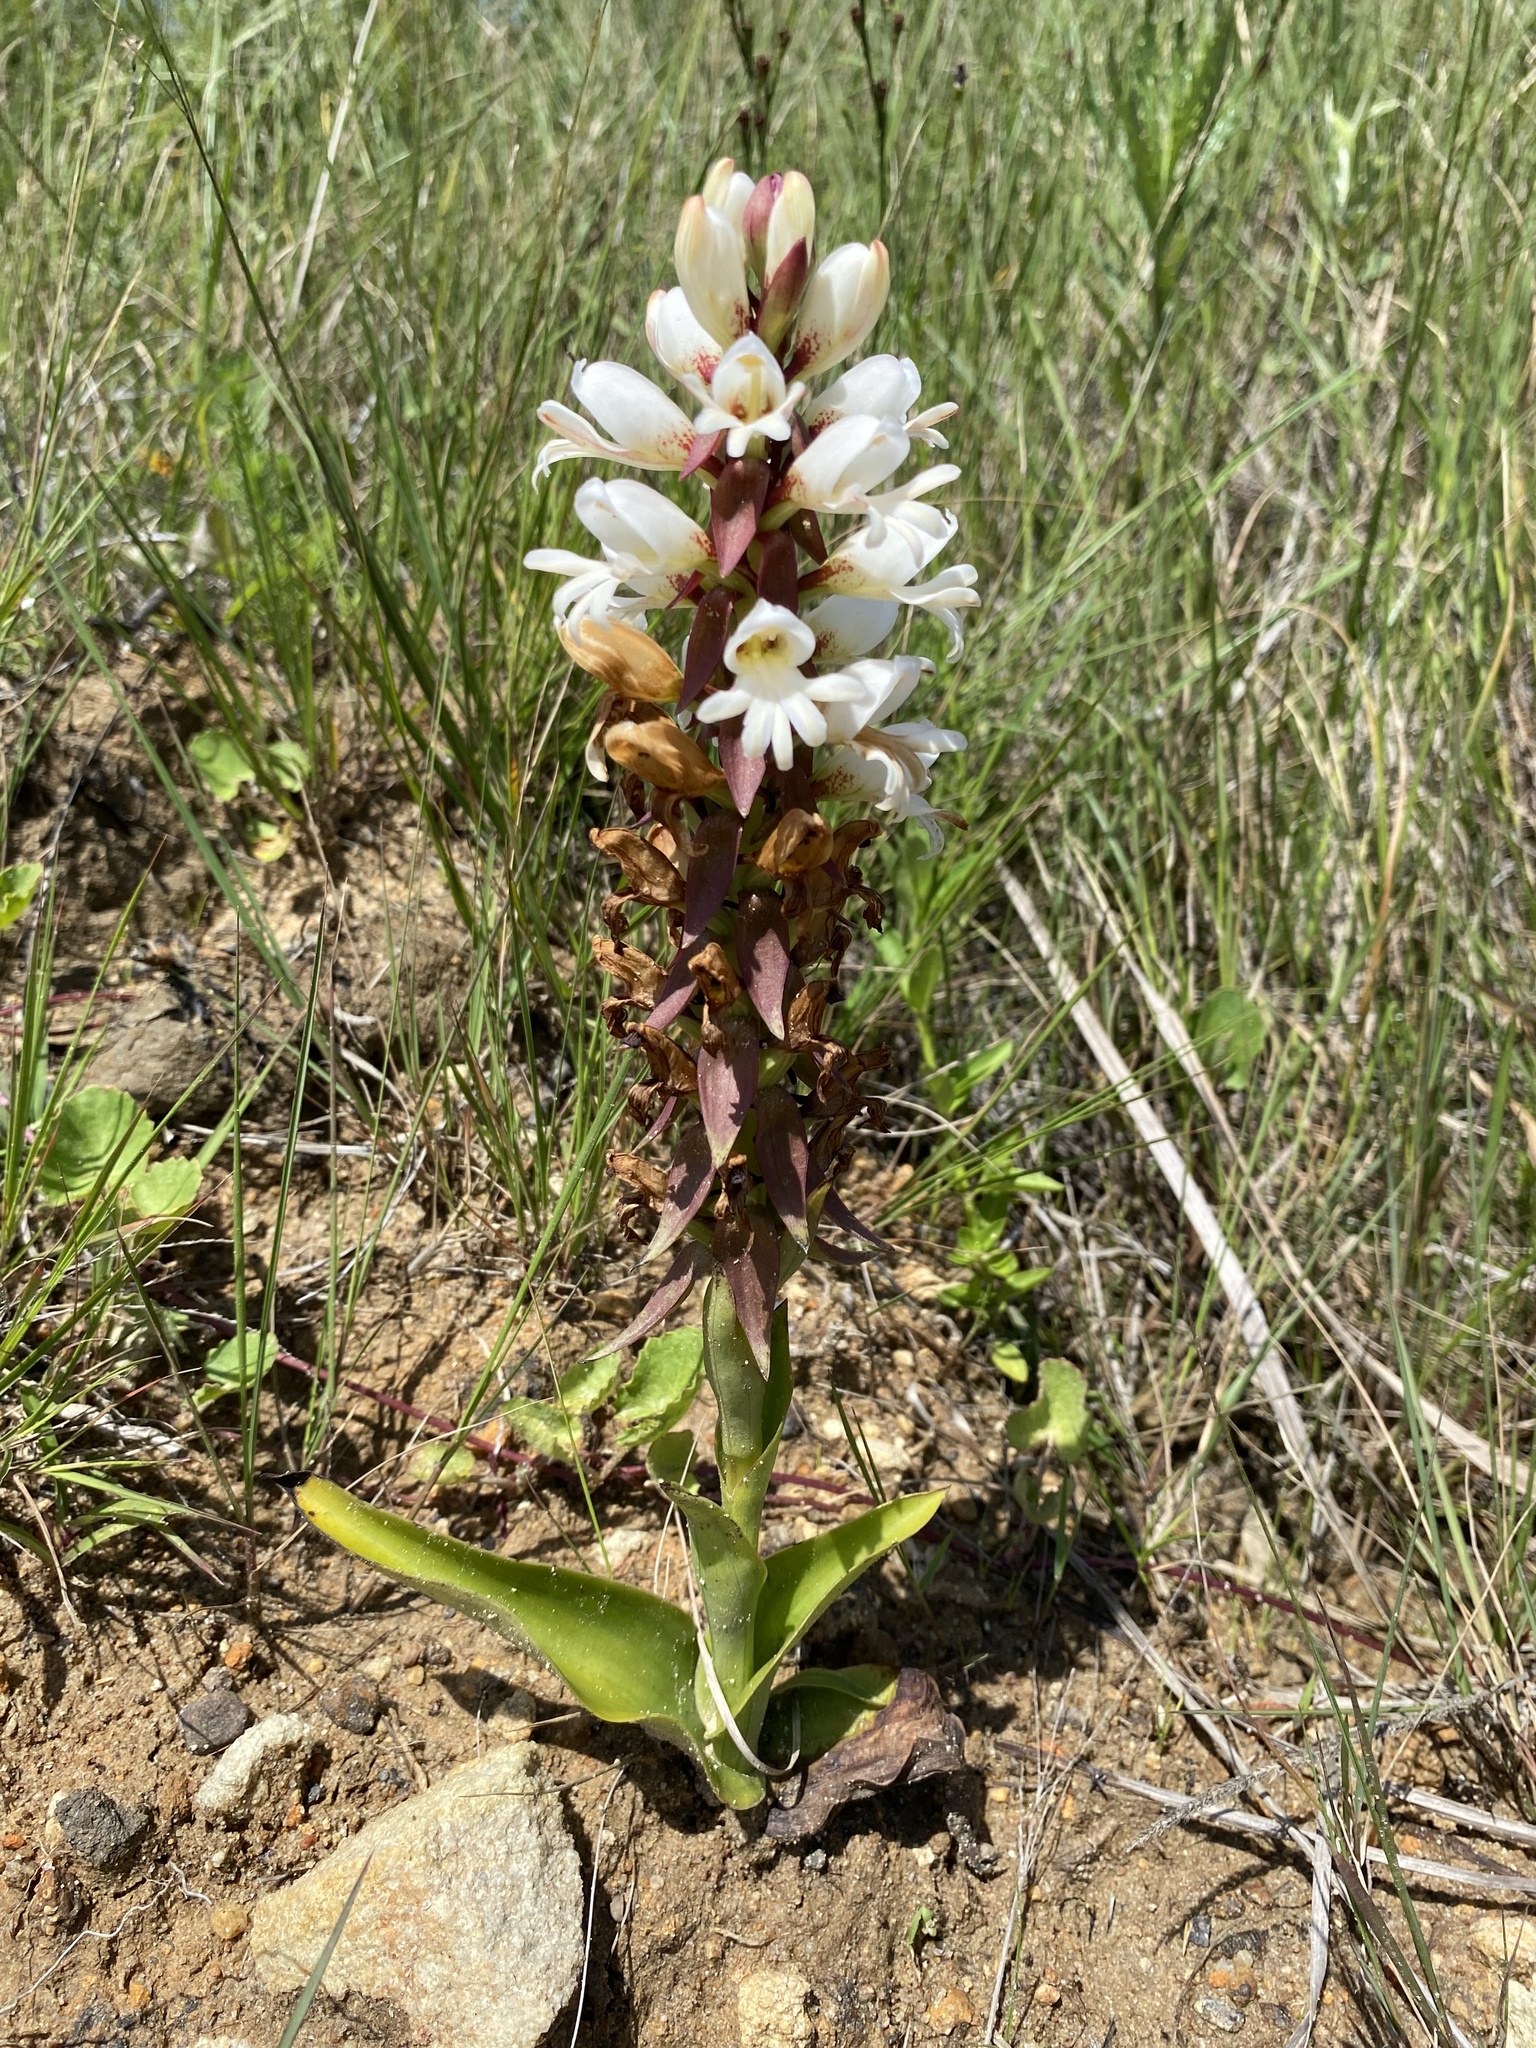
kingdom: Plantae
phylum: Tracheophyta
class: Liliopsida
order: Asparagales
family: Orchidaceae
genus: Satyrium
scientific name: Satyrium sphaerocarpum
